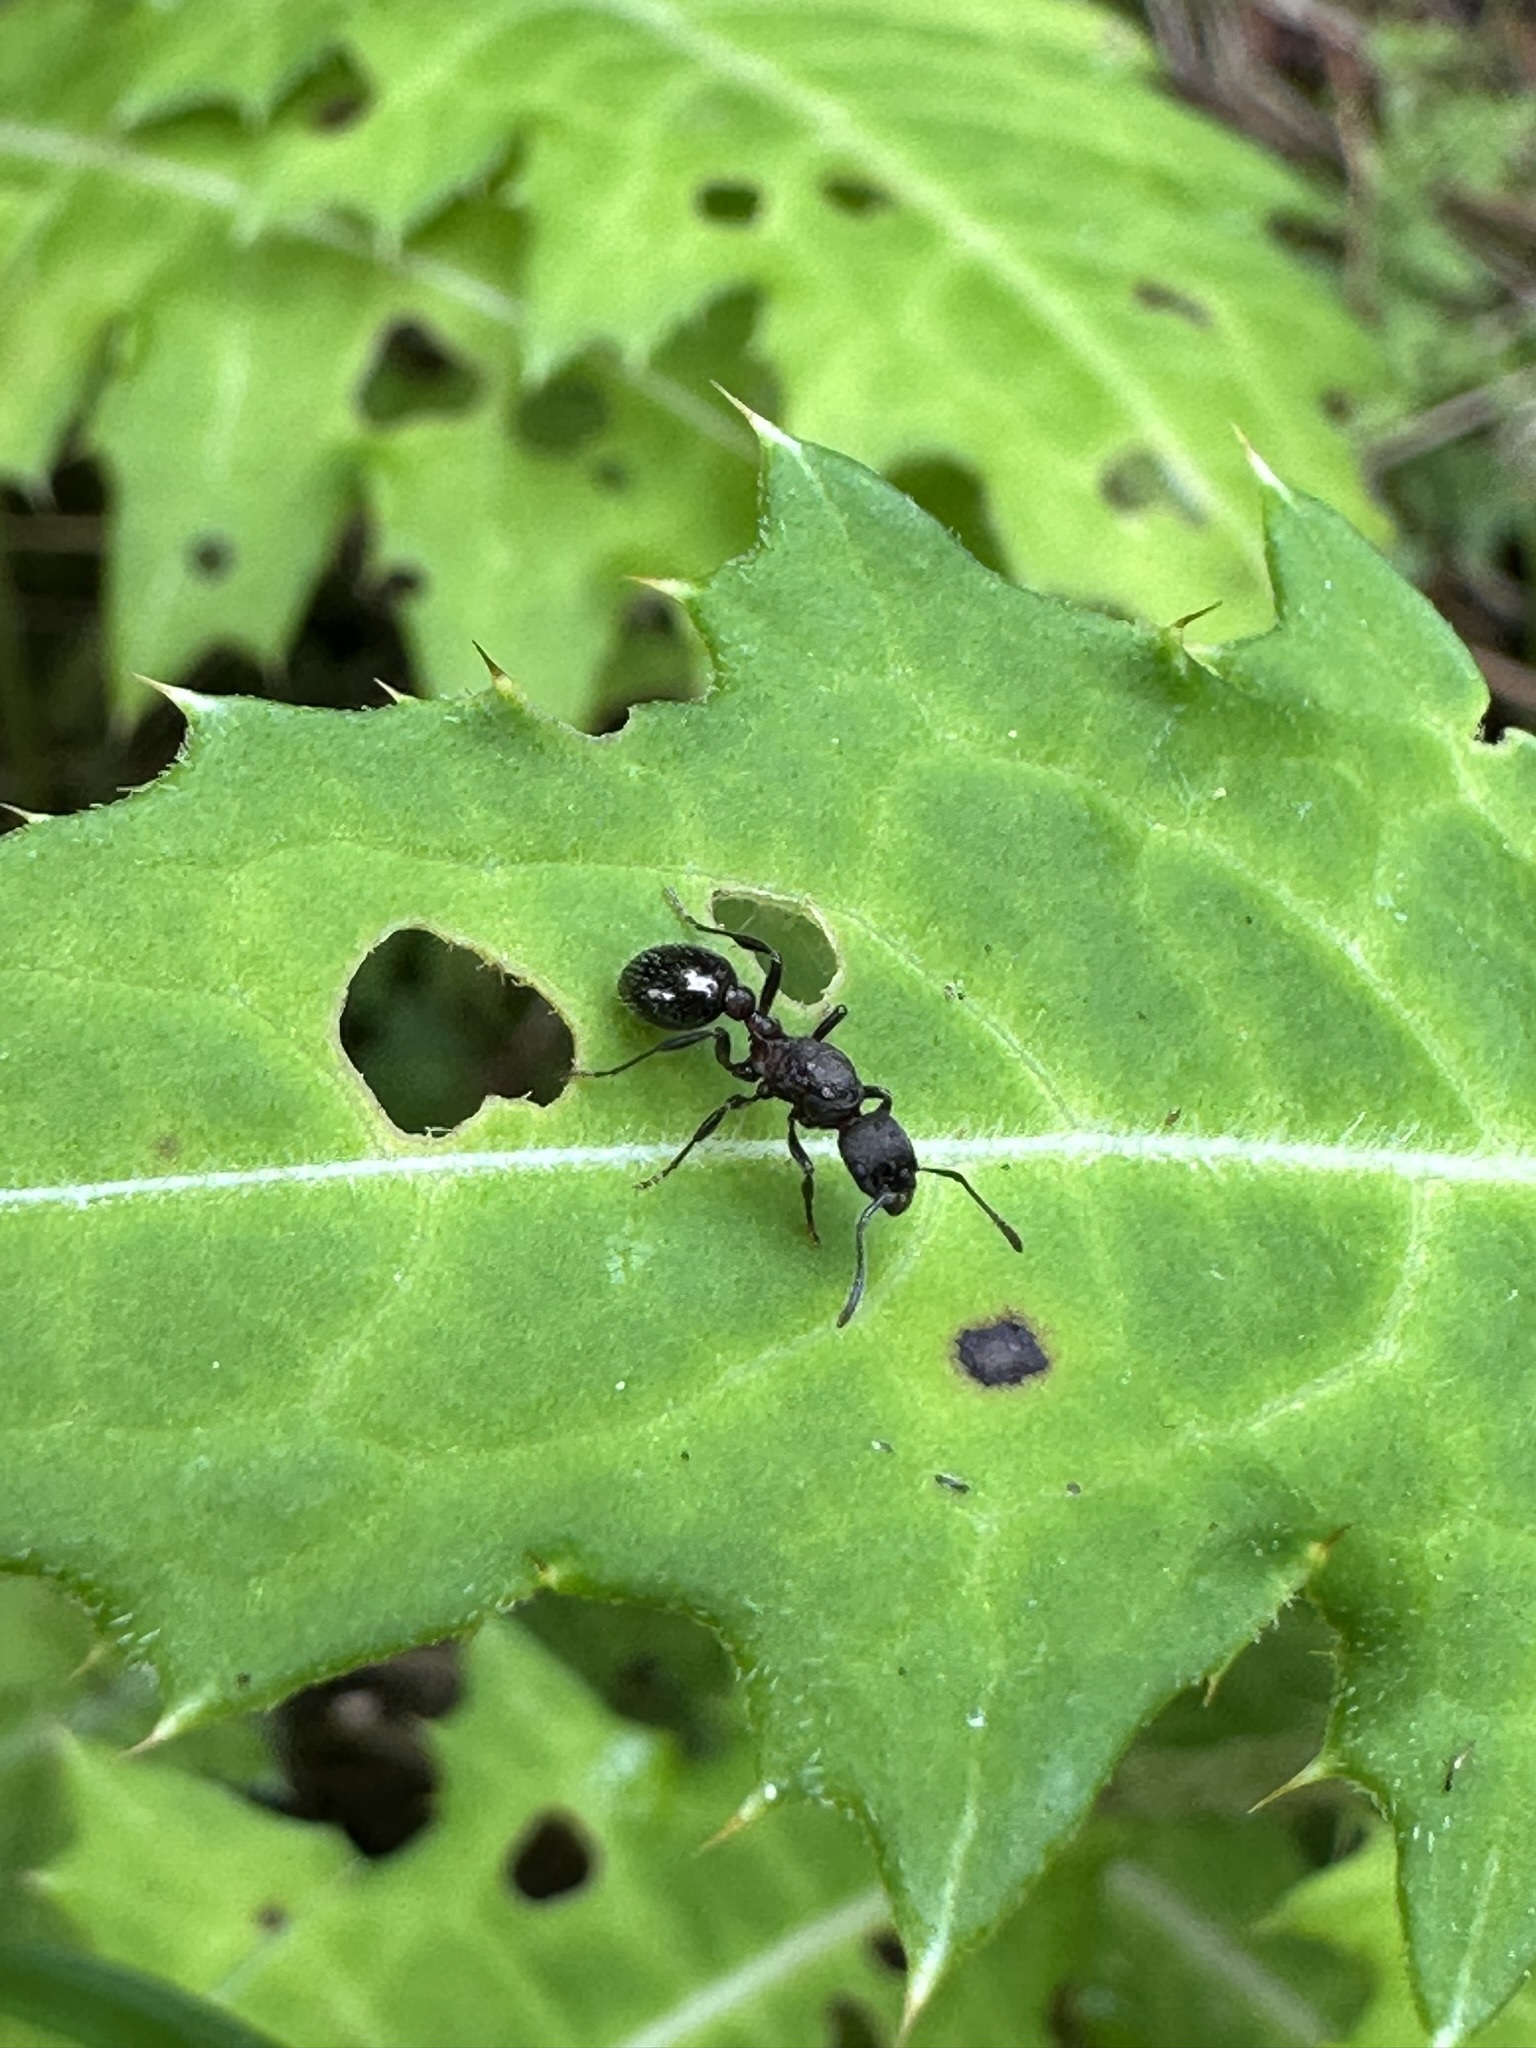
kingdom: Animalia
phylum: Arthropoda
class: Insecta
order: Hymenoptera
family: Formicidae
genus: Myrmica
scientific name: Myrmica kurokii
